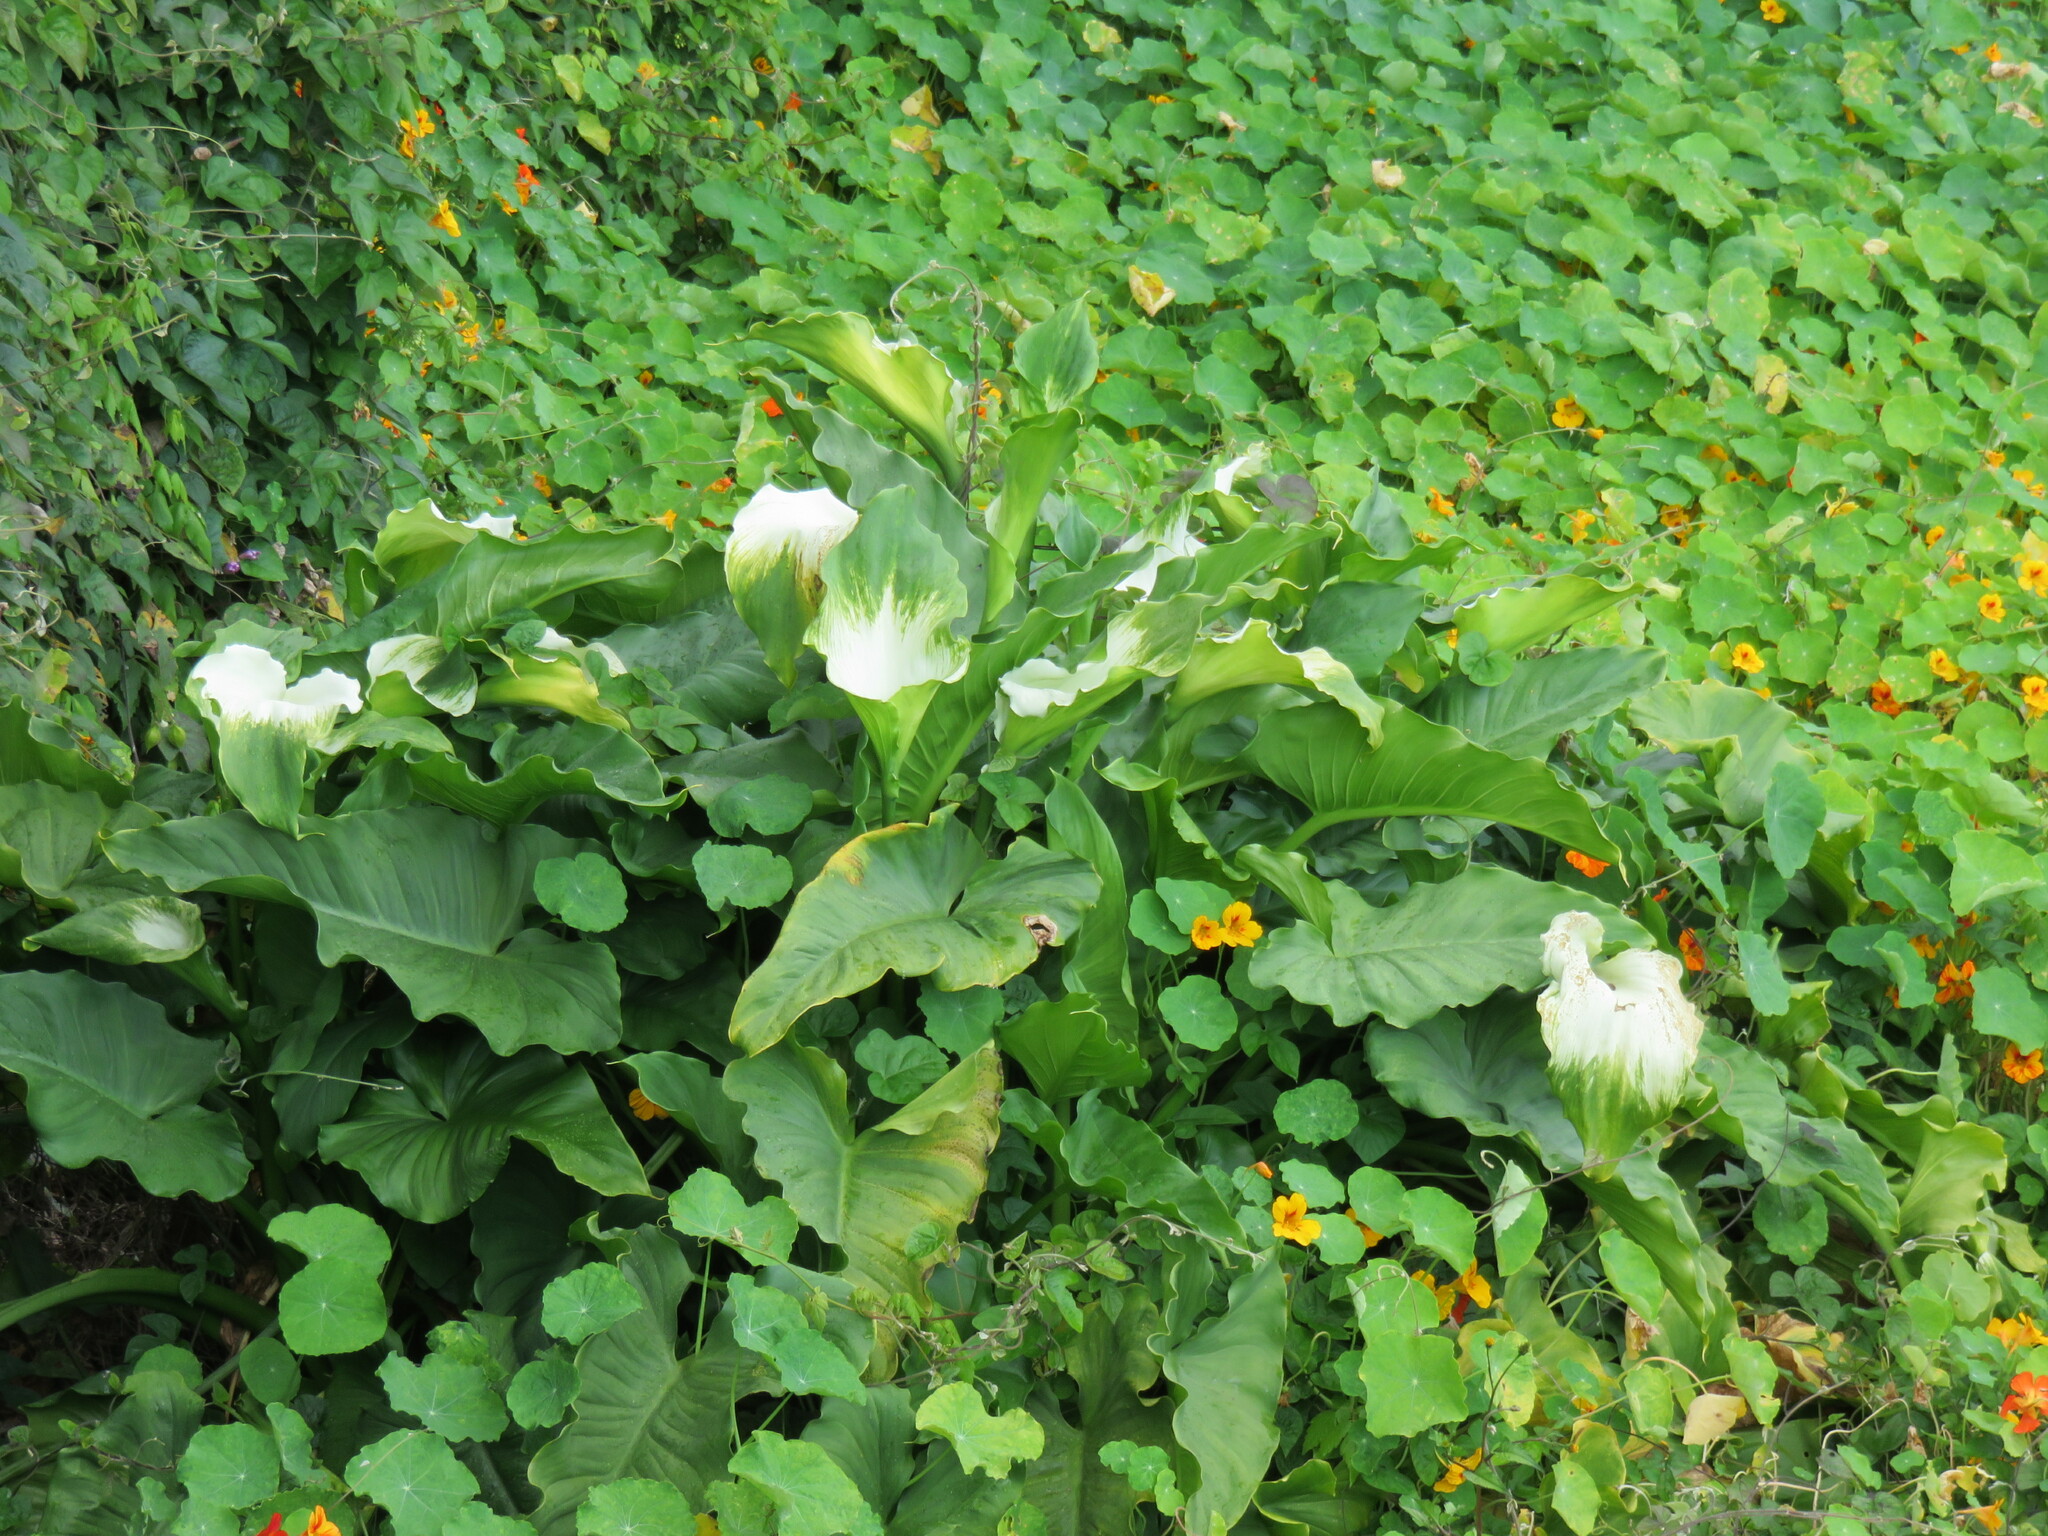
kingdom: Plantae
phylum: Tracheophyta
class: Liliopsida
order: Alismatales
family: Araceae
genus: Zantedeschia
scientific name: Zantedeschia aethiopica
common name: Altar-lily
